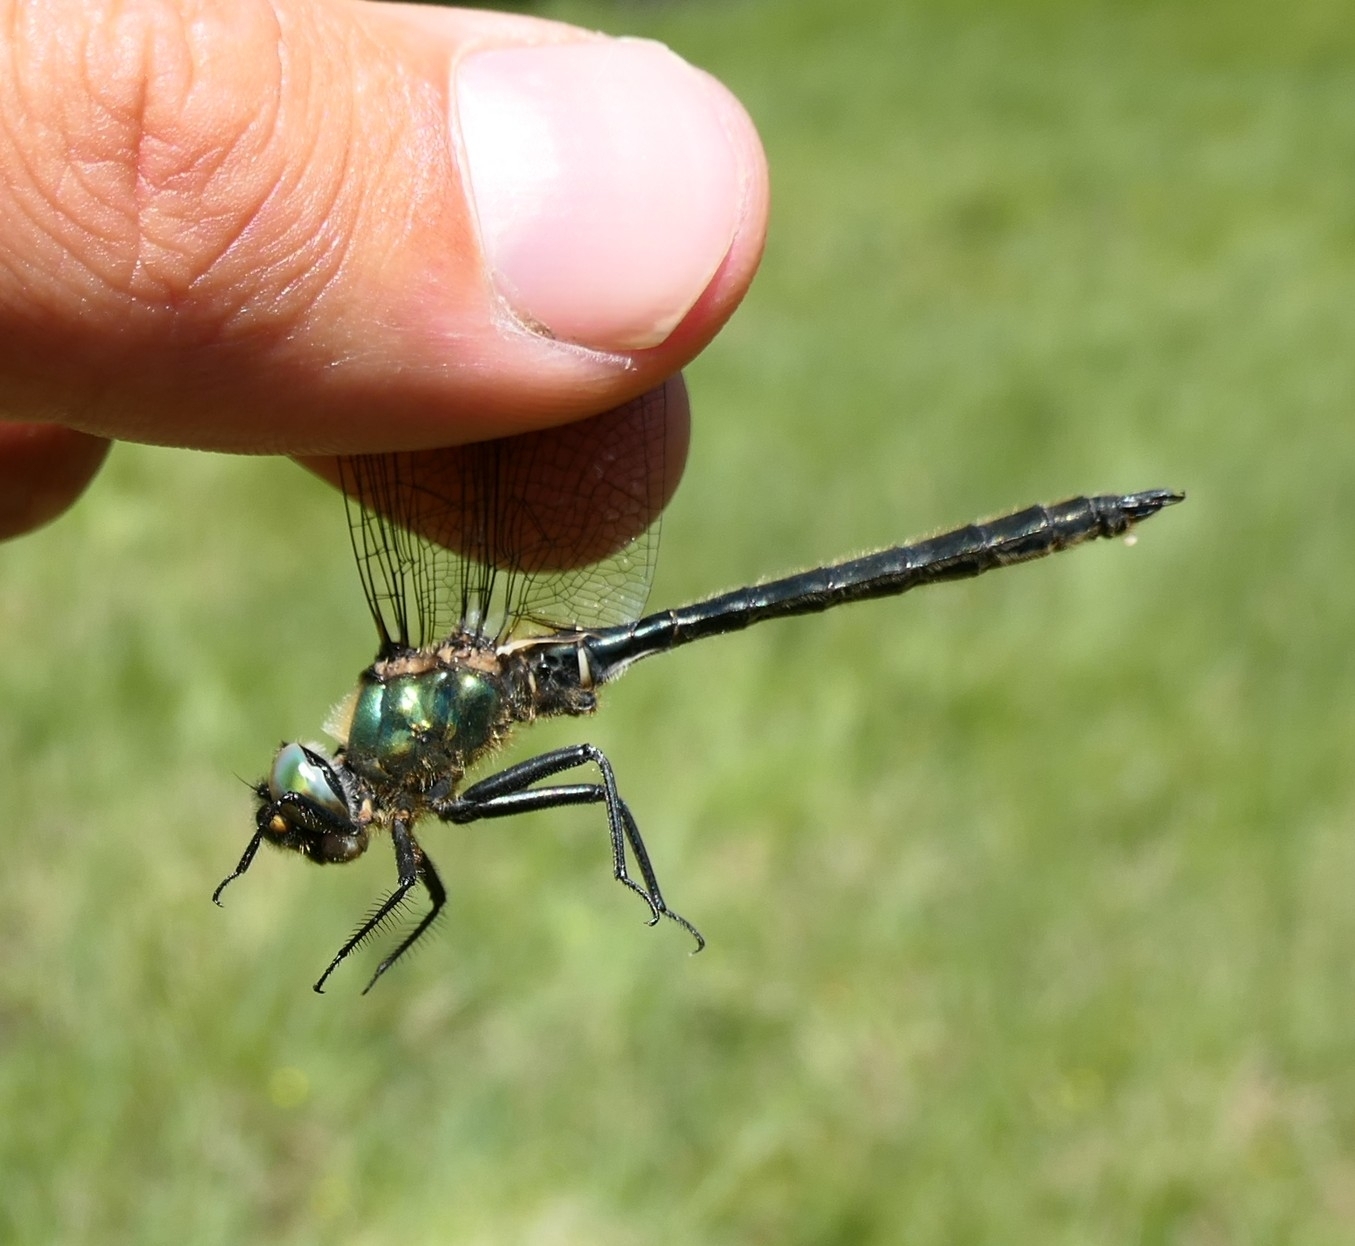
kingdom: Animalia
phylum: Arthropoda
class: Insecta
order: Odonata
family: Corduliidae
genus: Somatochlora
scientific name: Somatochlora alpestris
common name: Alpine emerald
